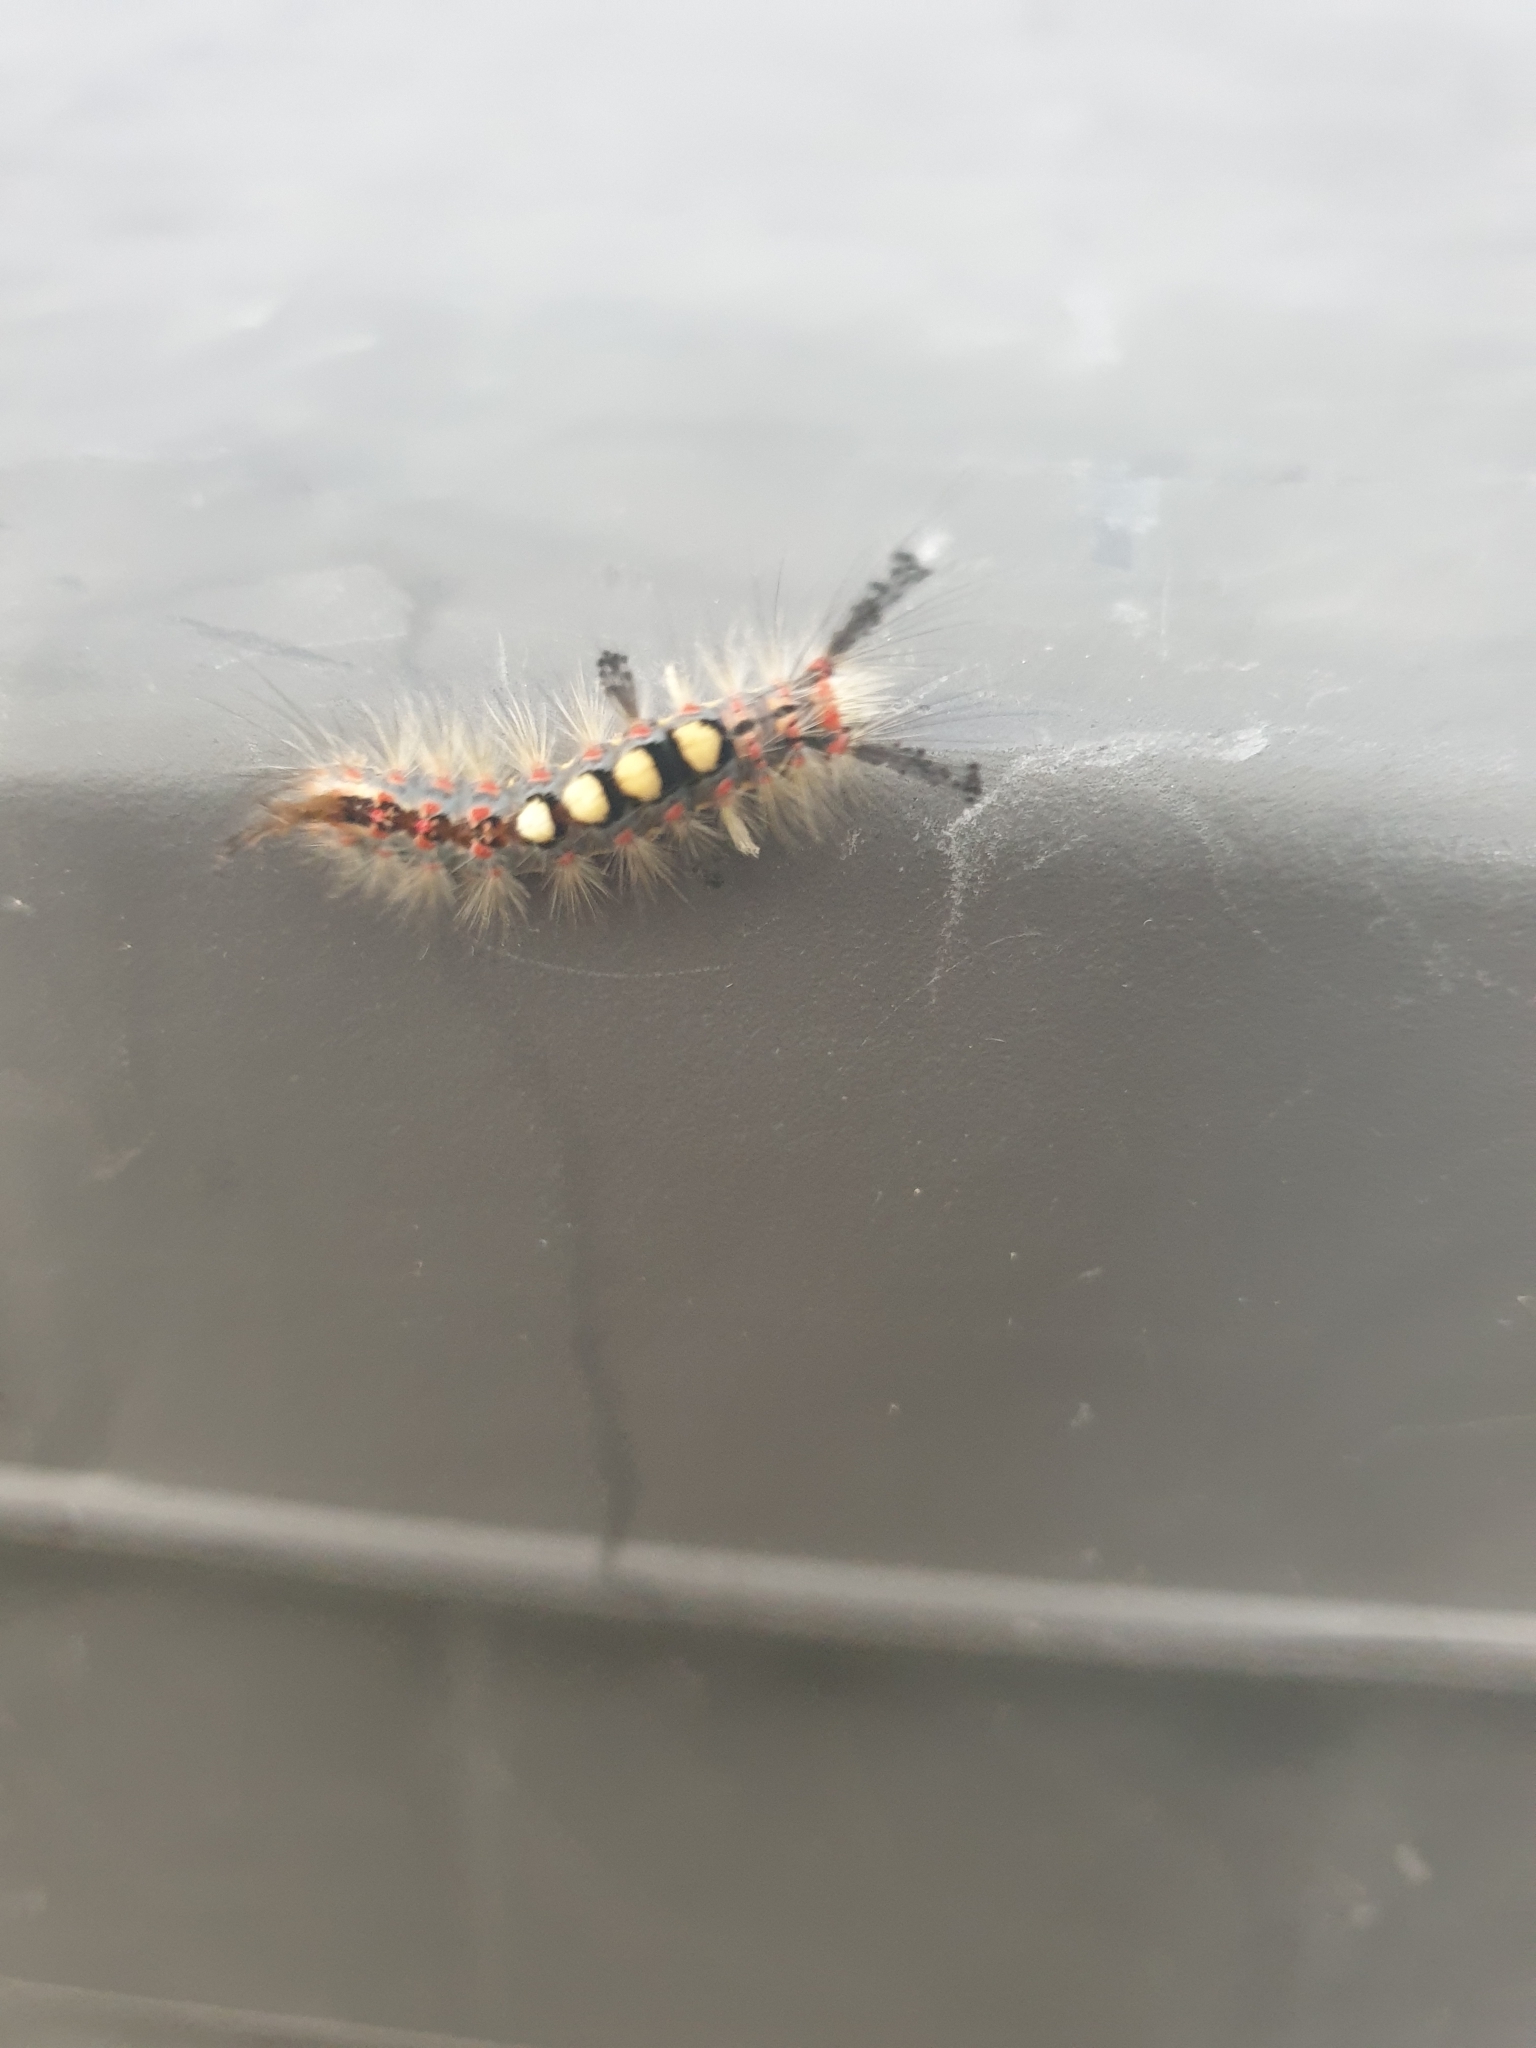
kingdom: Animalia
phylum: Arthropoda
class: Insecta
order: Lepidoptera
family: Erebidae
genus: Orgyia
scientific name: Orgyia antiqua
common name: Vapourer
